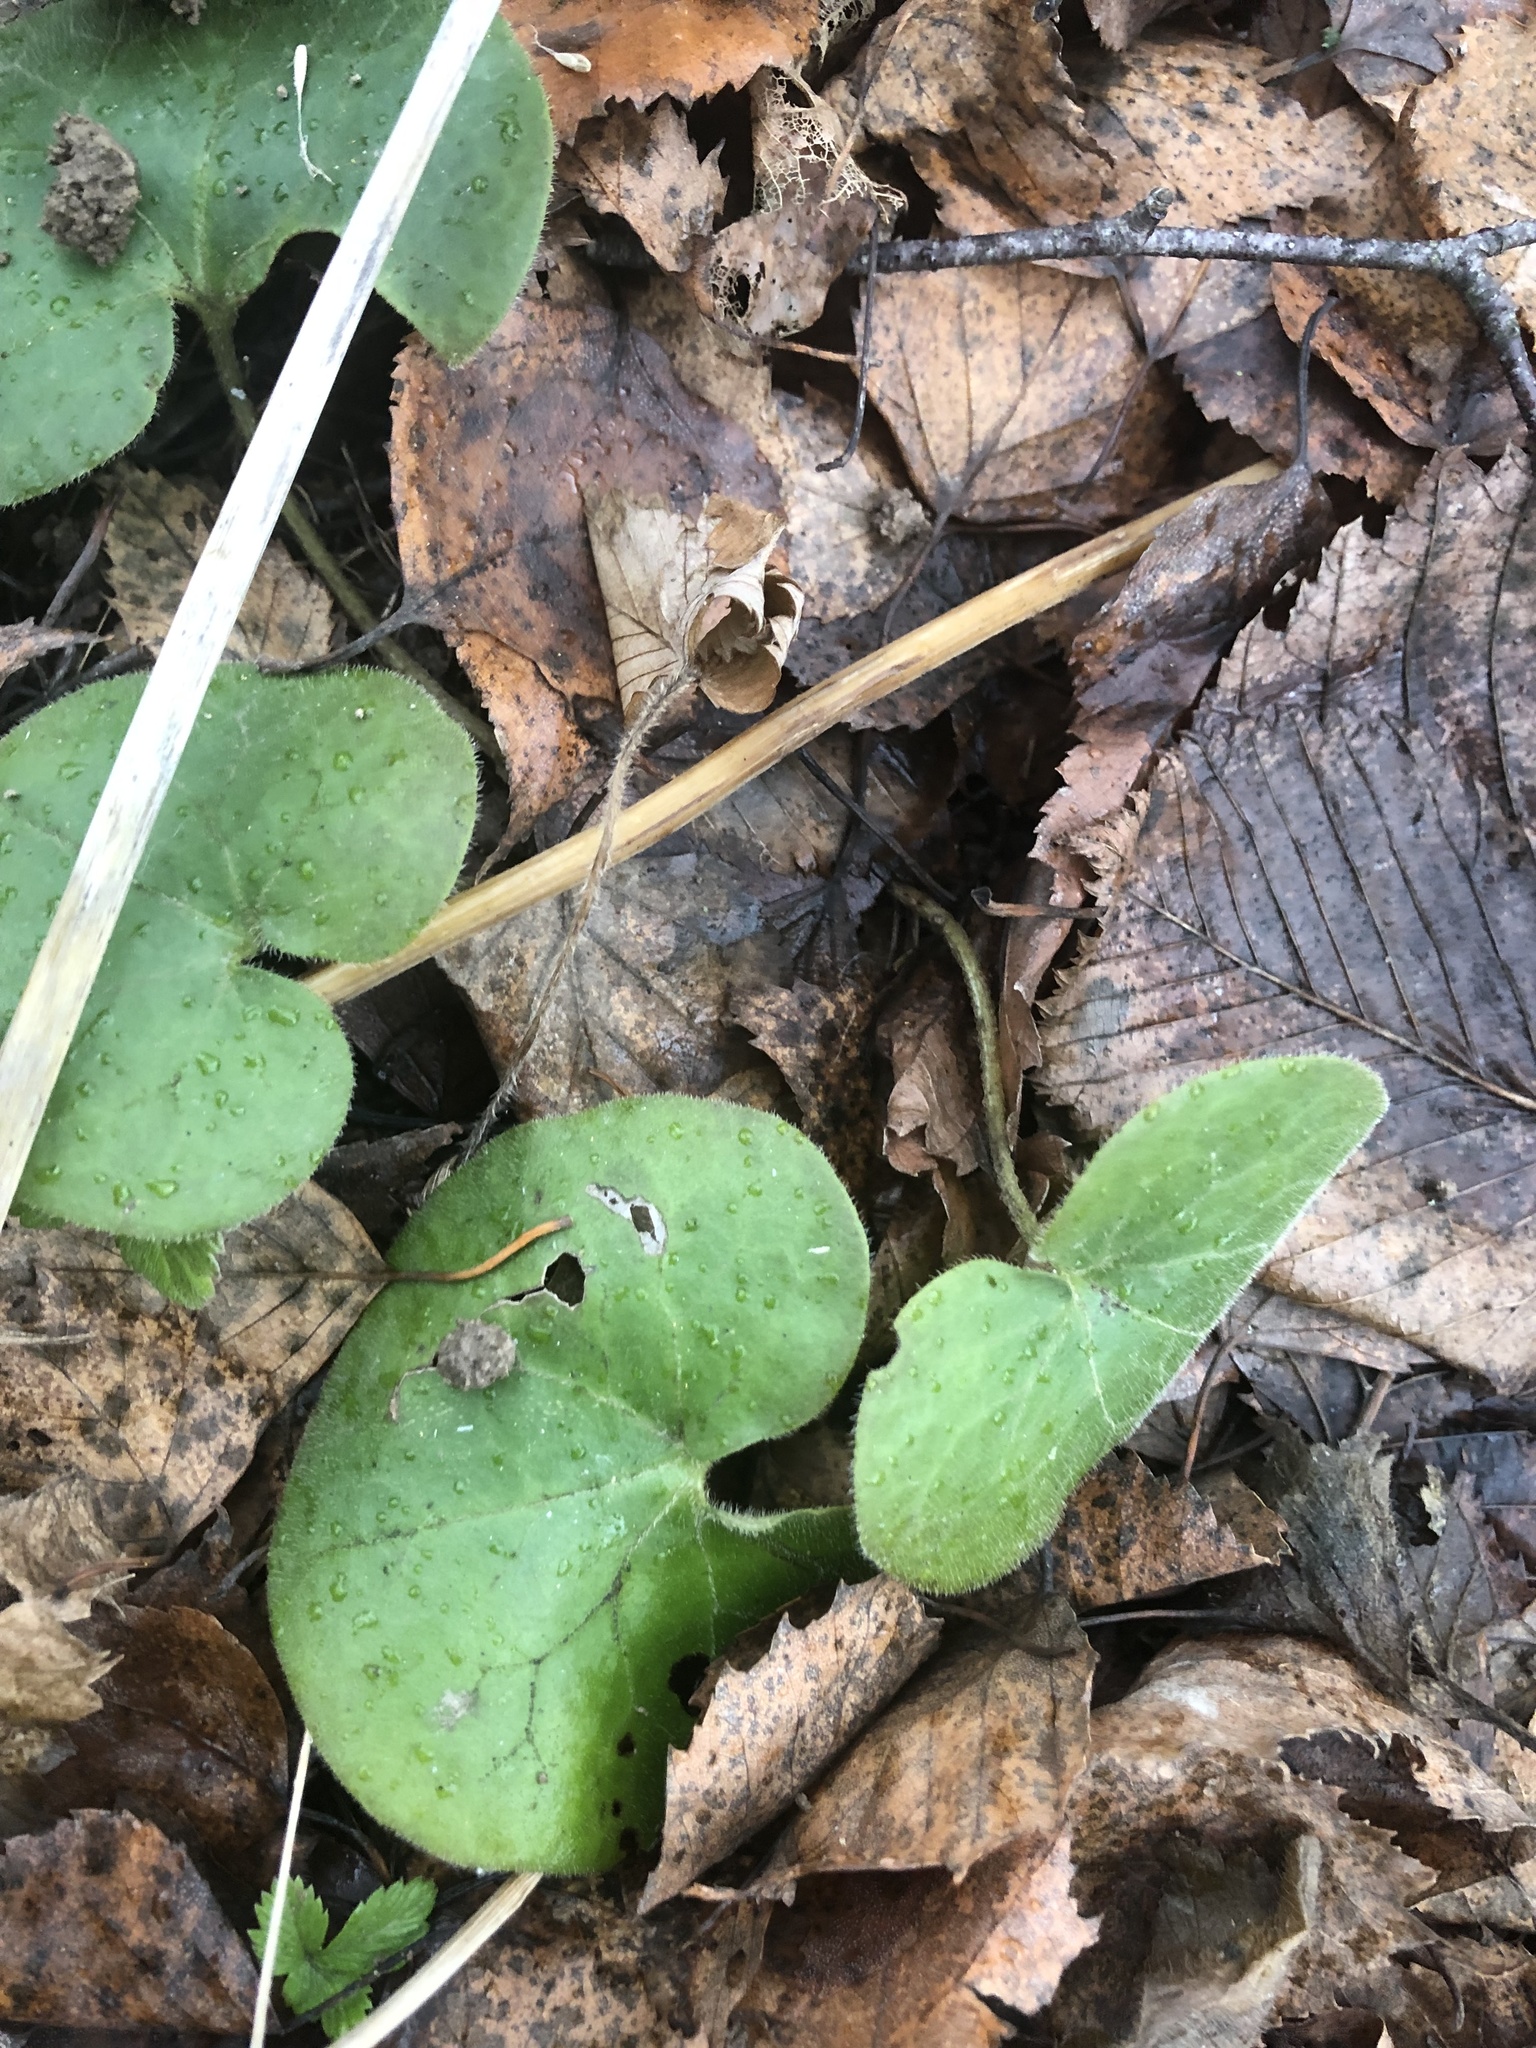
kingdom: Plantae
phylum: Tracheophyta
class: Magnoliopsida
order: Piperales
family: Aristolochiaceae
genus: Asarum
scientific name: Asarum europaeum
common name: Asarabacca
